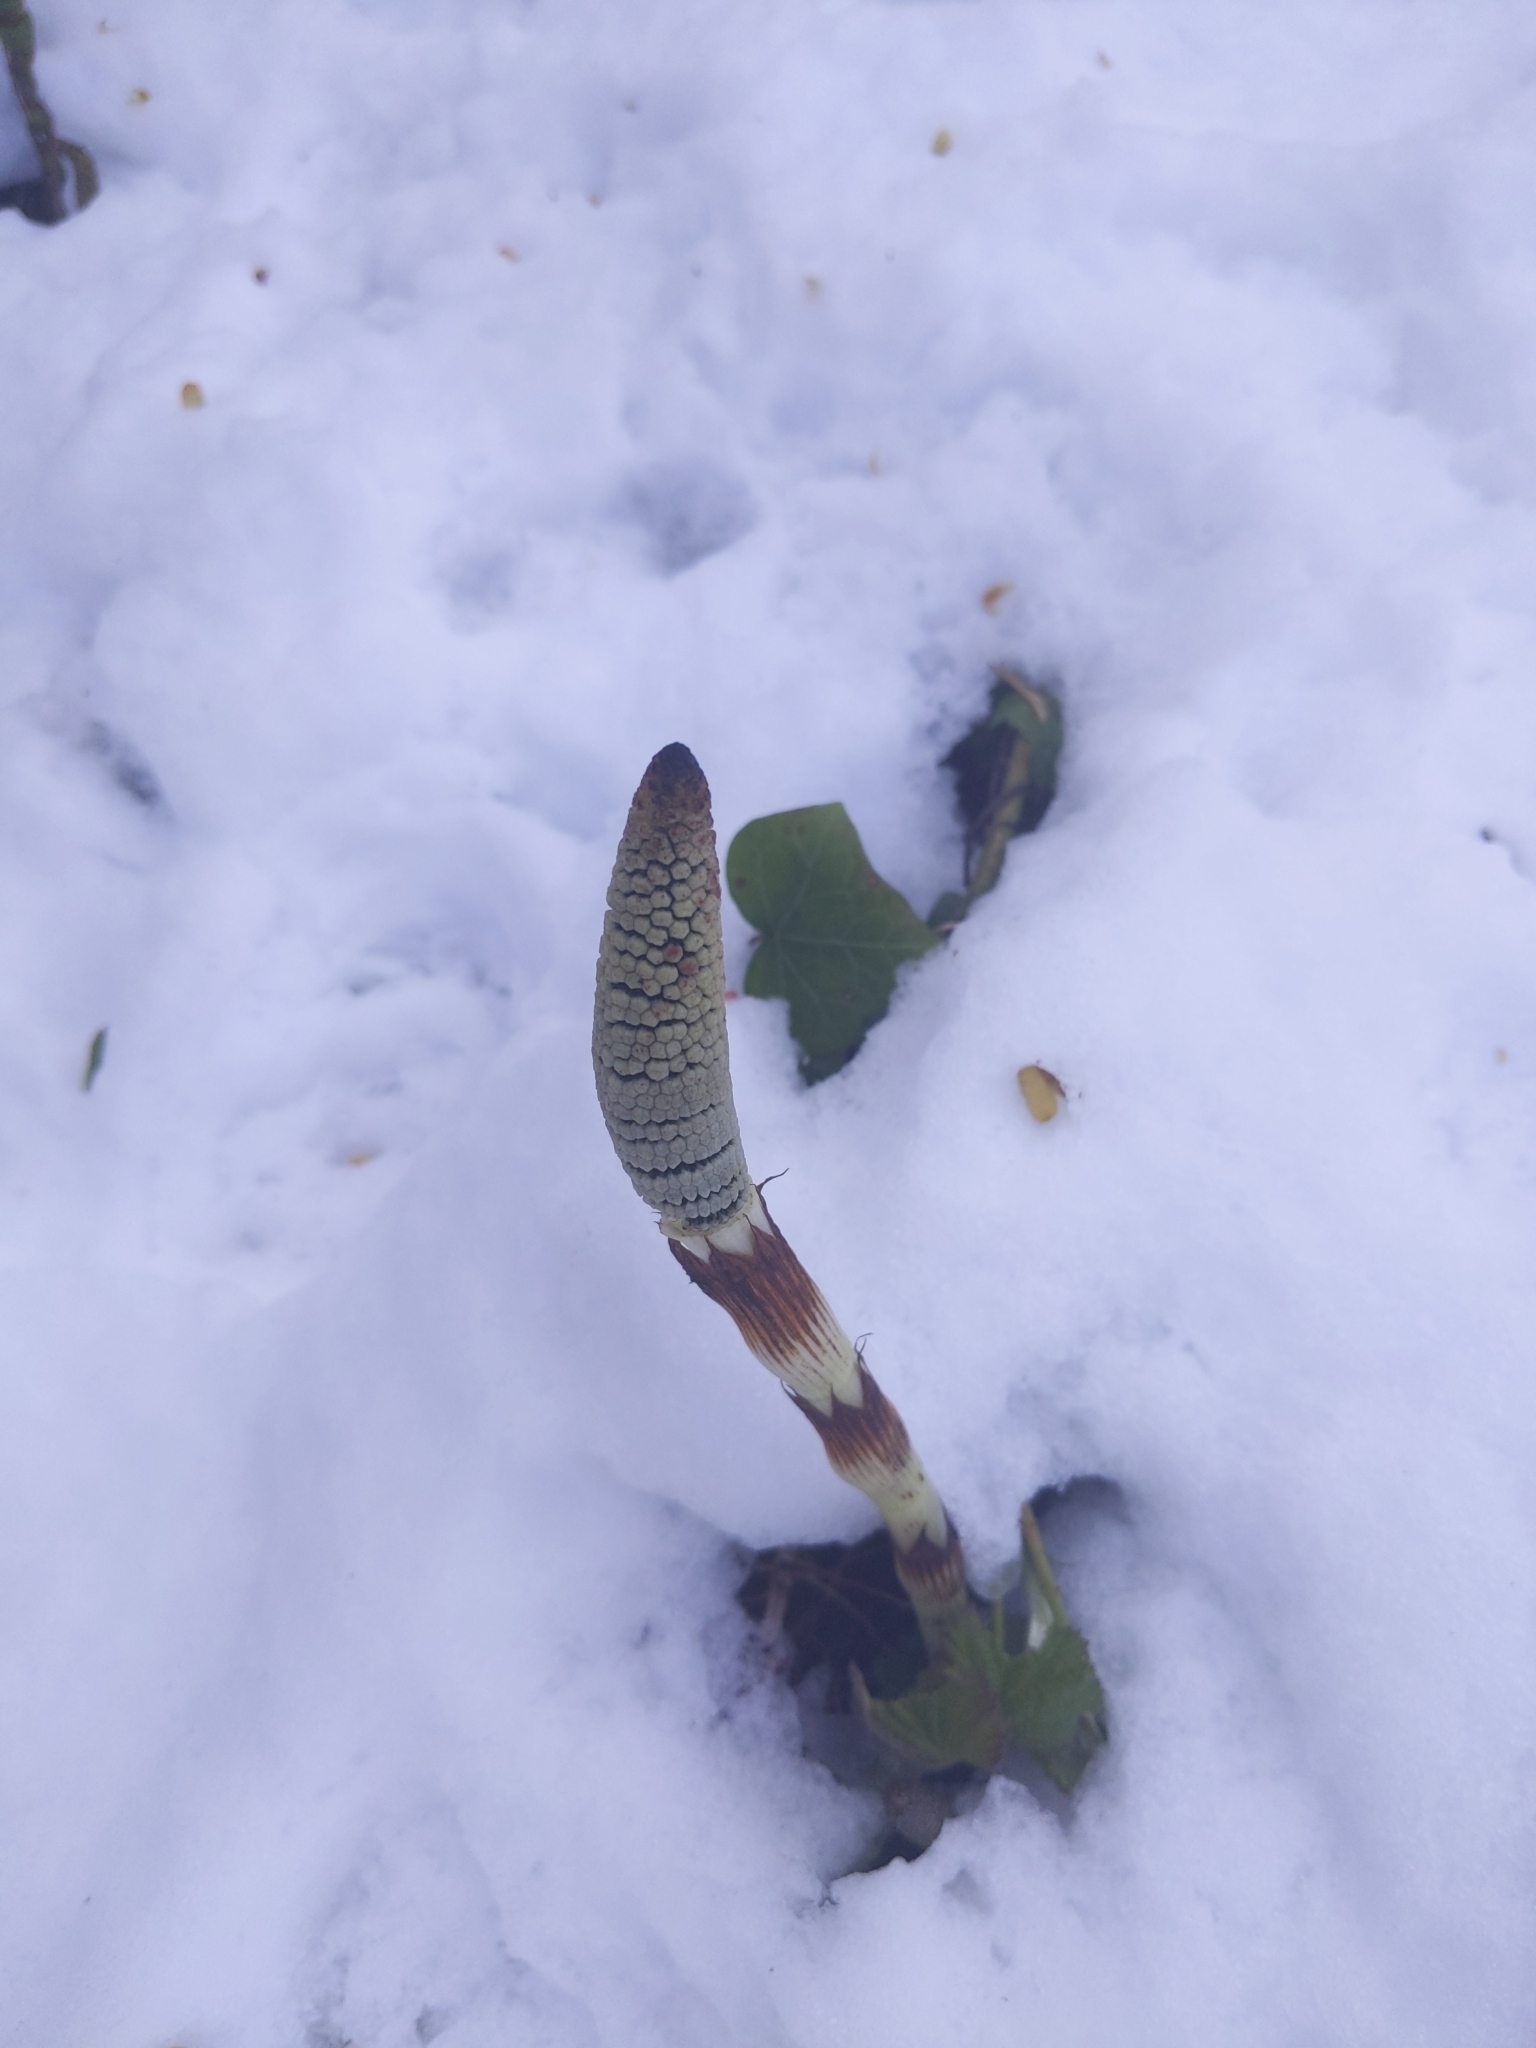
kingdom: Plantae
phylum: Tracheophyta
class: Polypodiopsida
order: Equisetales
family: Equisetaceae
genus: Equisetum
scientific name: Equisetum braunii
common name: Braun's horsetail
